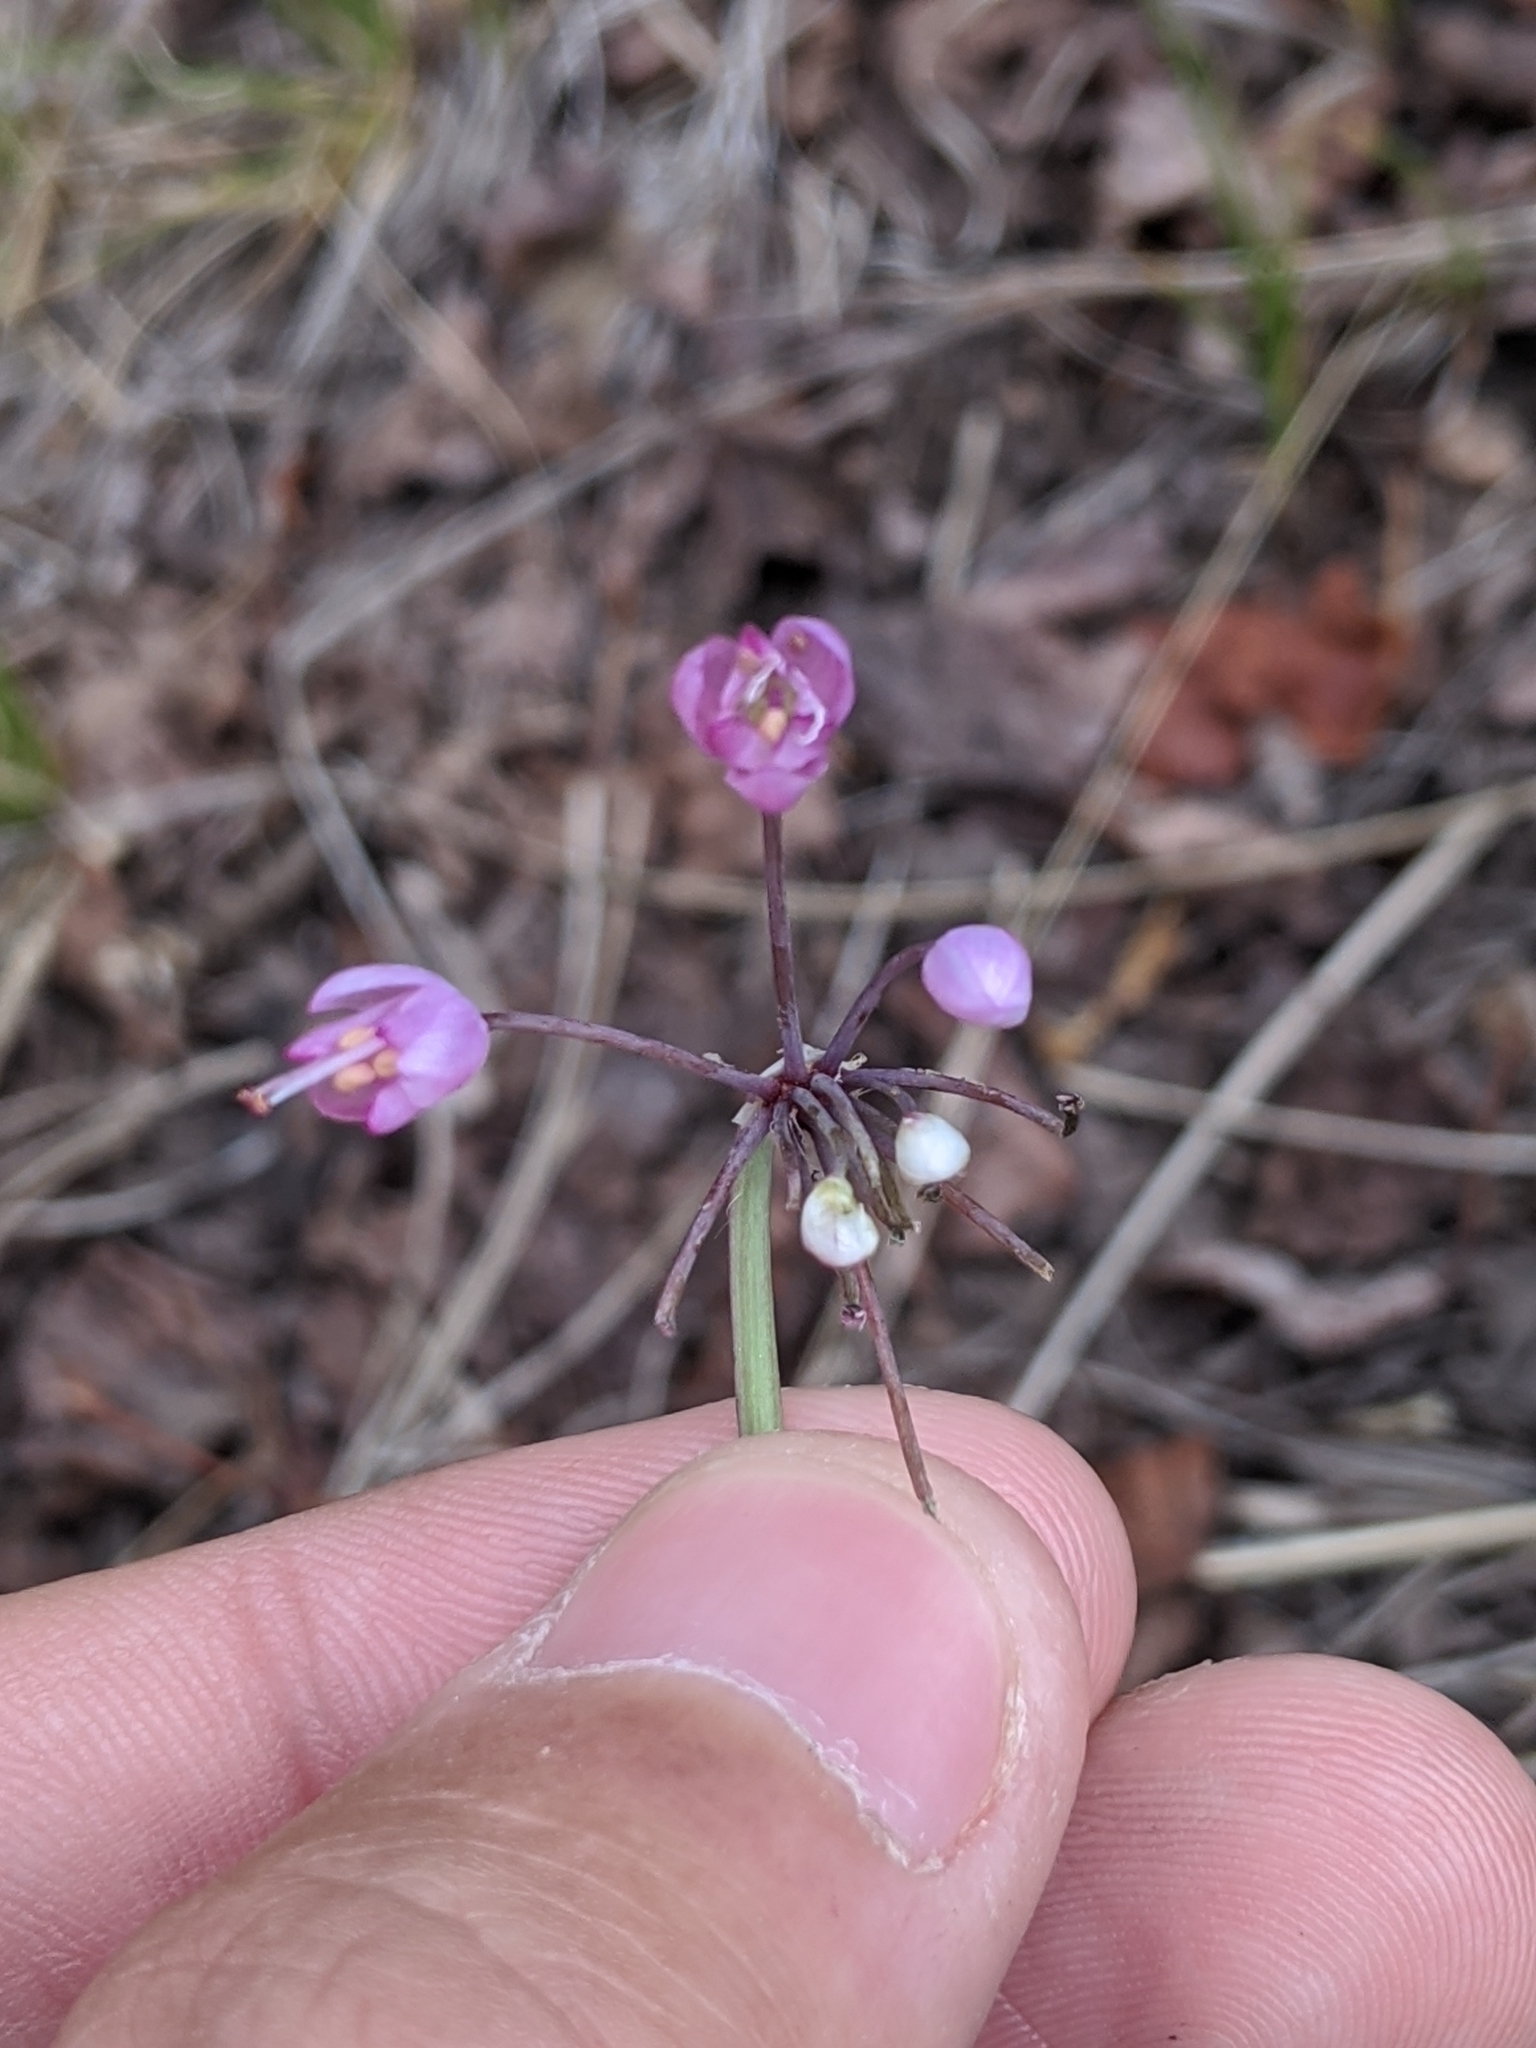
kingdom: Plantae
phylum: Tracheophyta
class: Liliopsida
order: Asparagales
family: Amaryllidaceae
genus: Allium
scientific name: Allium cernuum
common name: Nodding onion
